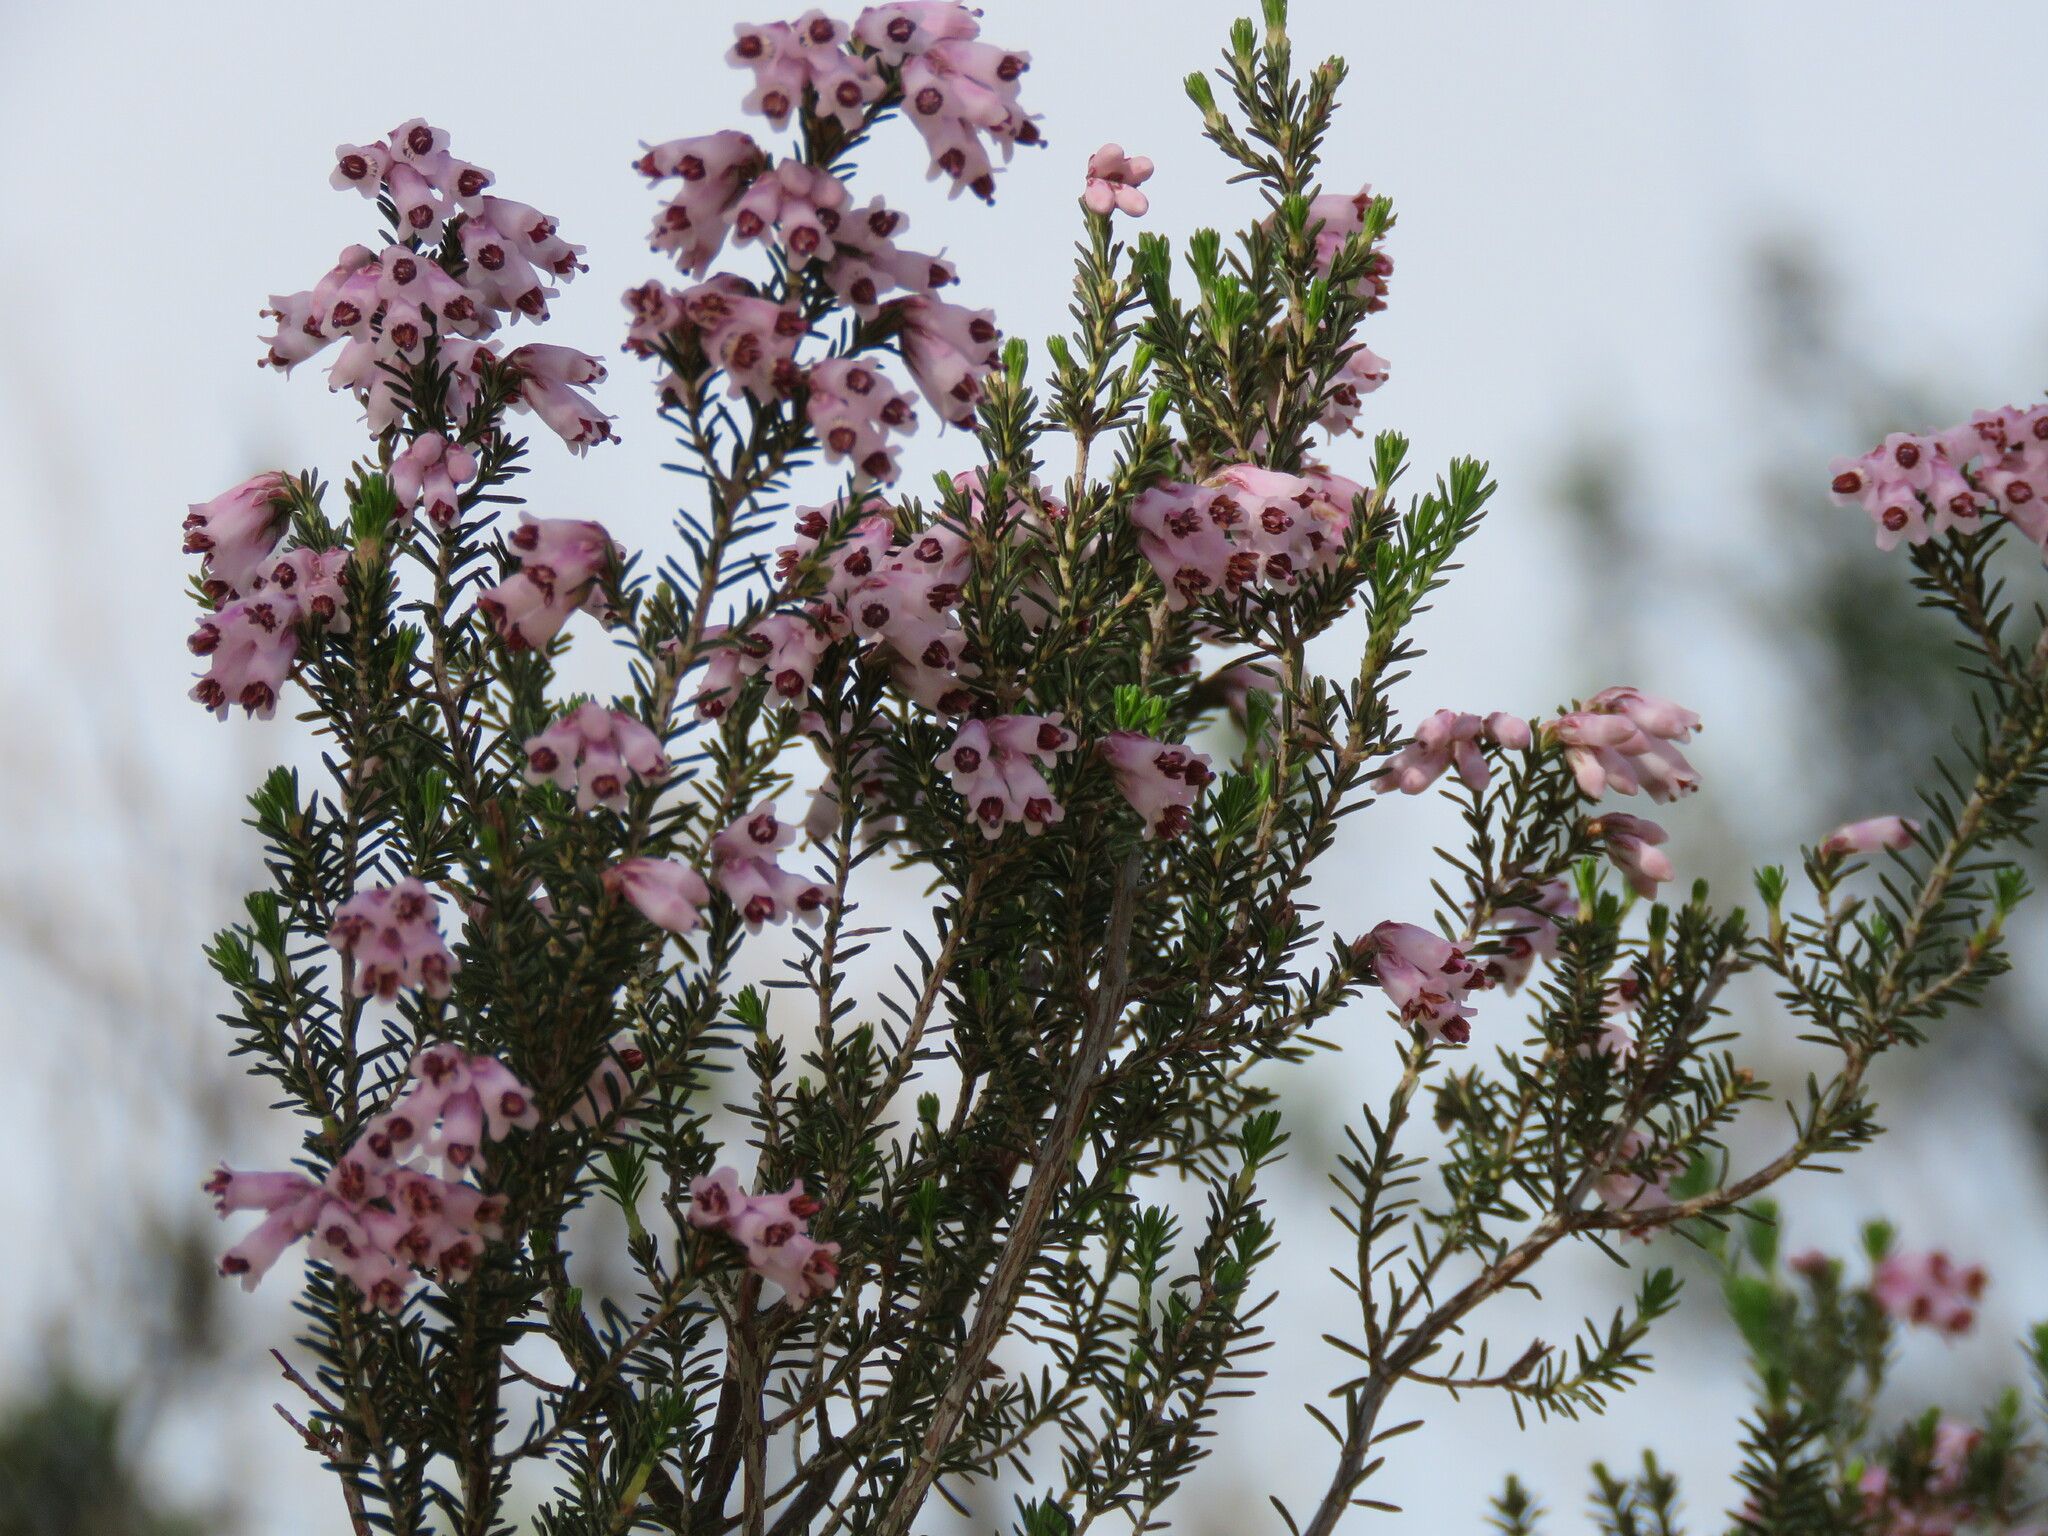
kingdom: Plantae
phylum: Tracheophyta
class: Magnoliopsida
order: Ericales
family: Ericaceae
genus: Erica
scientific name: Erica australis
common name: Spanish heath
